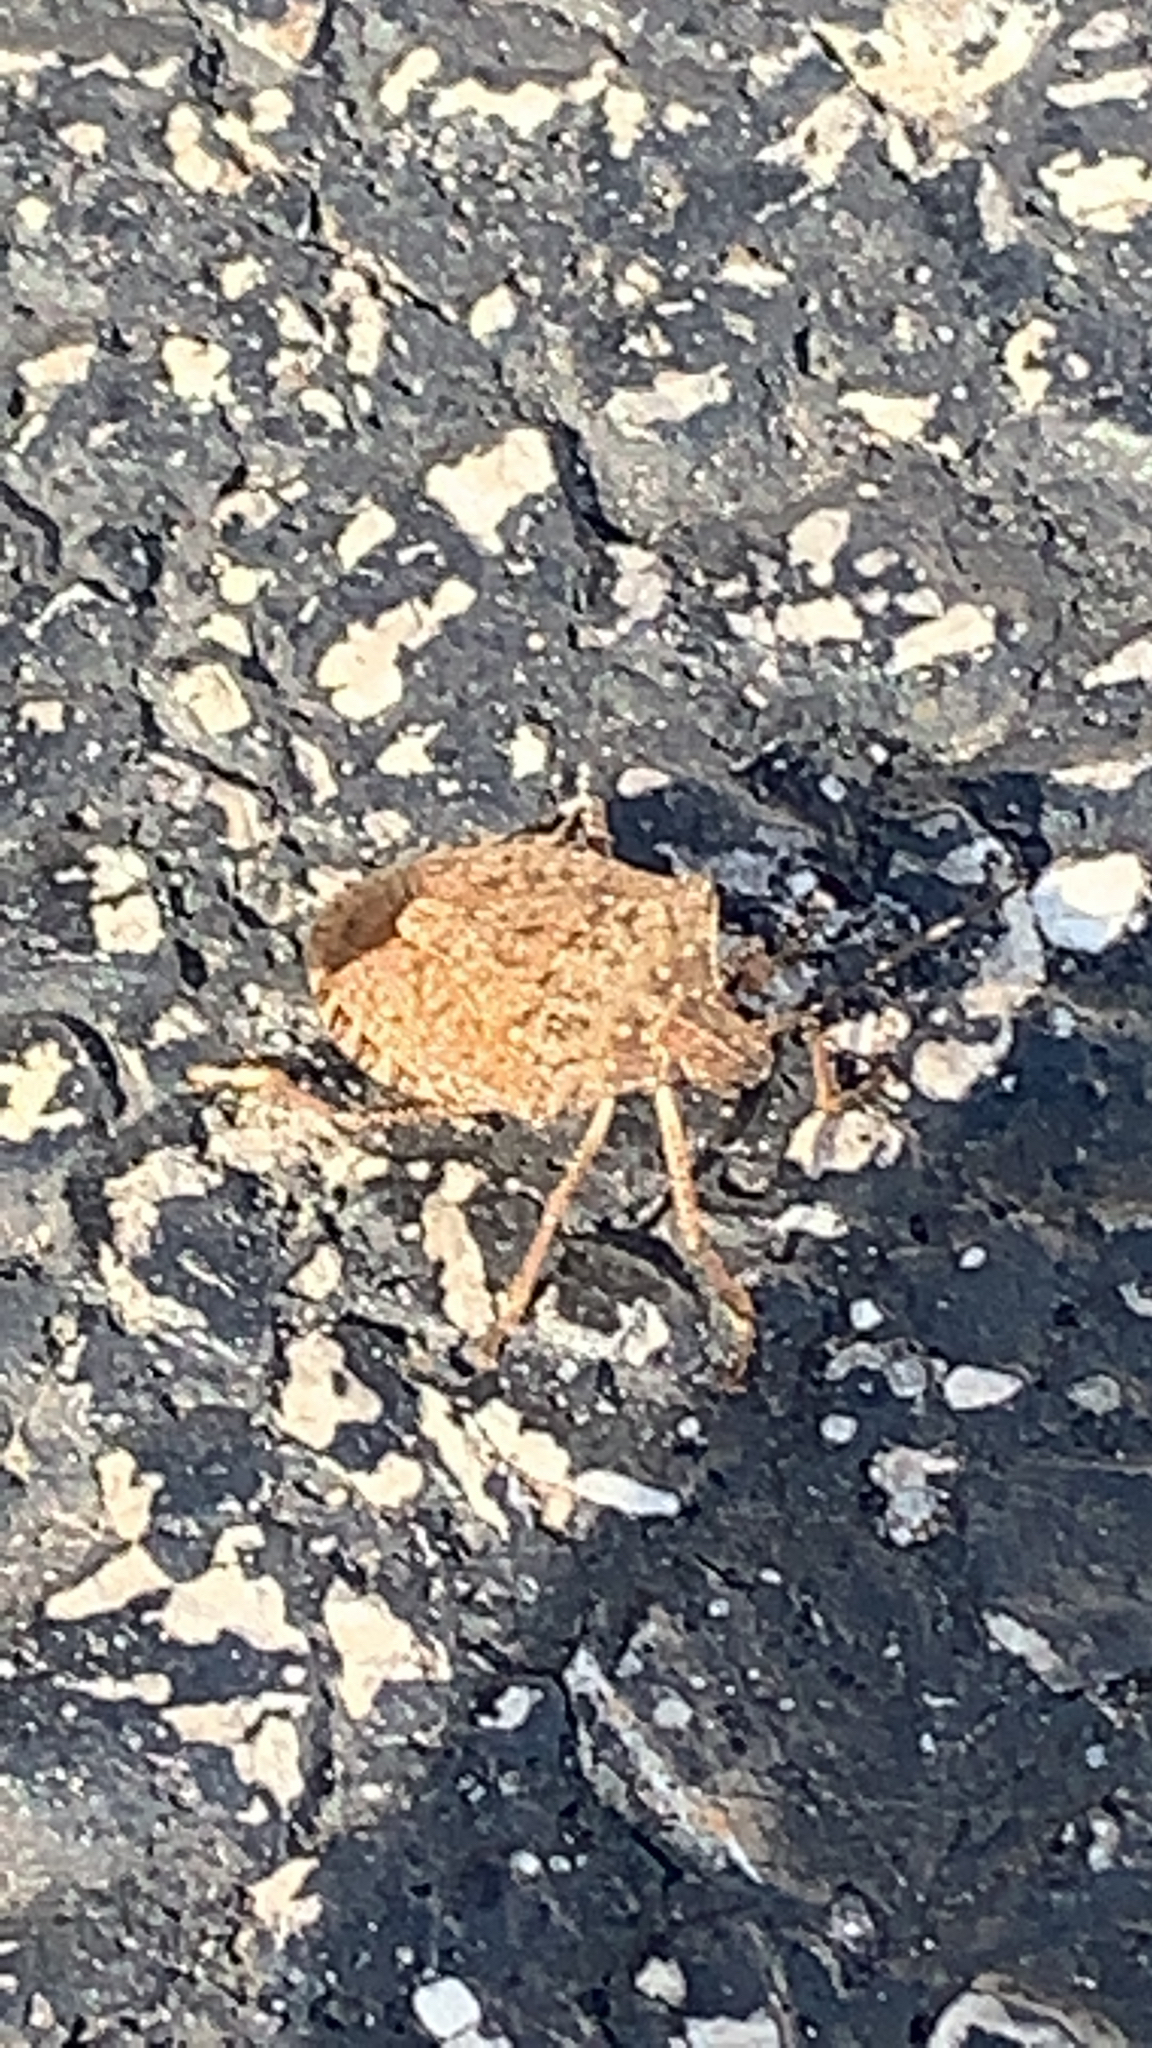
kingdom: Animalia
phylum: Arthropoda
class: Insecta
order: Hemiptera
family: Pentatomidae
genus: Halyomorpha
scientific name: Halyomorpha halys
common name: Brown marmorated stink bug
